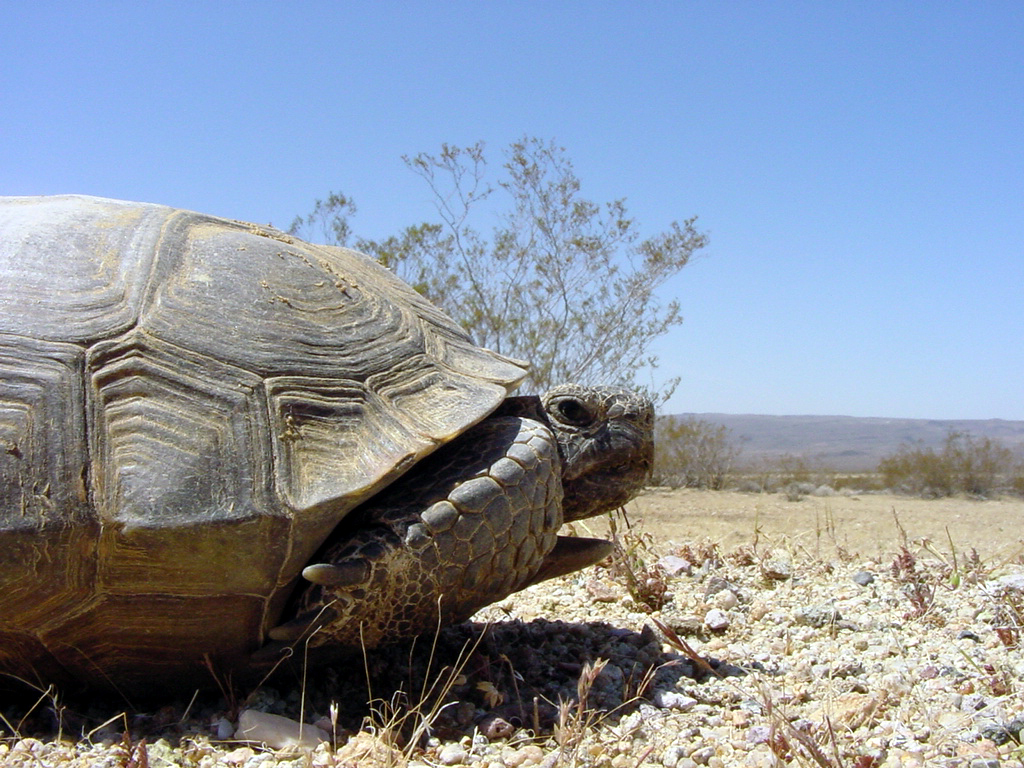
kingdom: Animalia
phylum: Chordata
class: Testudines
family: Testudinidae
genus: Gopherus
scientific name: Gopherus agassizii
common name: Mojave desert tortoise
